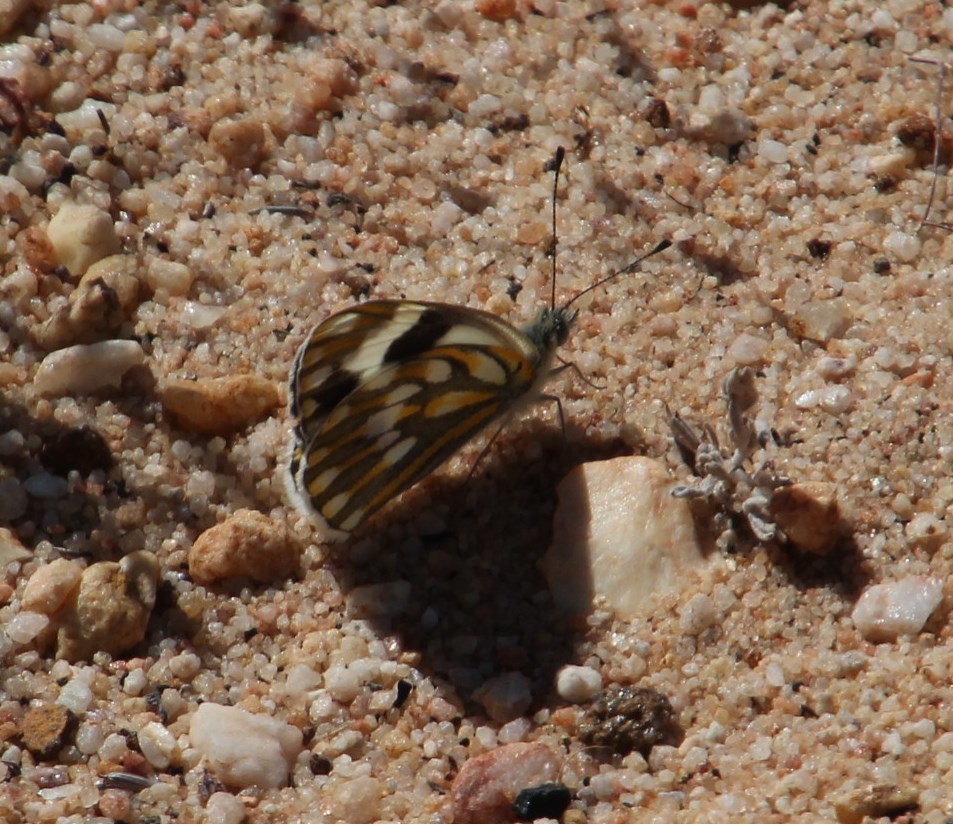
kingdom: Animalia
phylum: Arthropoda
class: Insecta
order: Lepidoptera
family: Pieridae
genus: Pontia
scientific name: Pontia helice
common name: Meadow white
